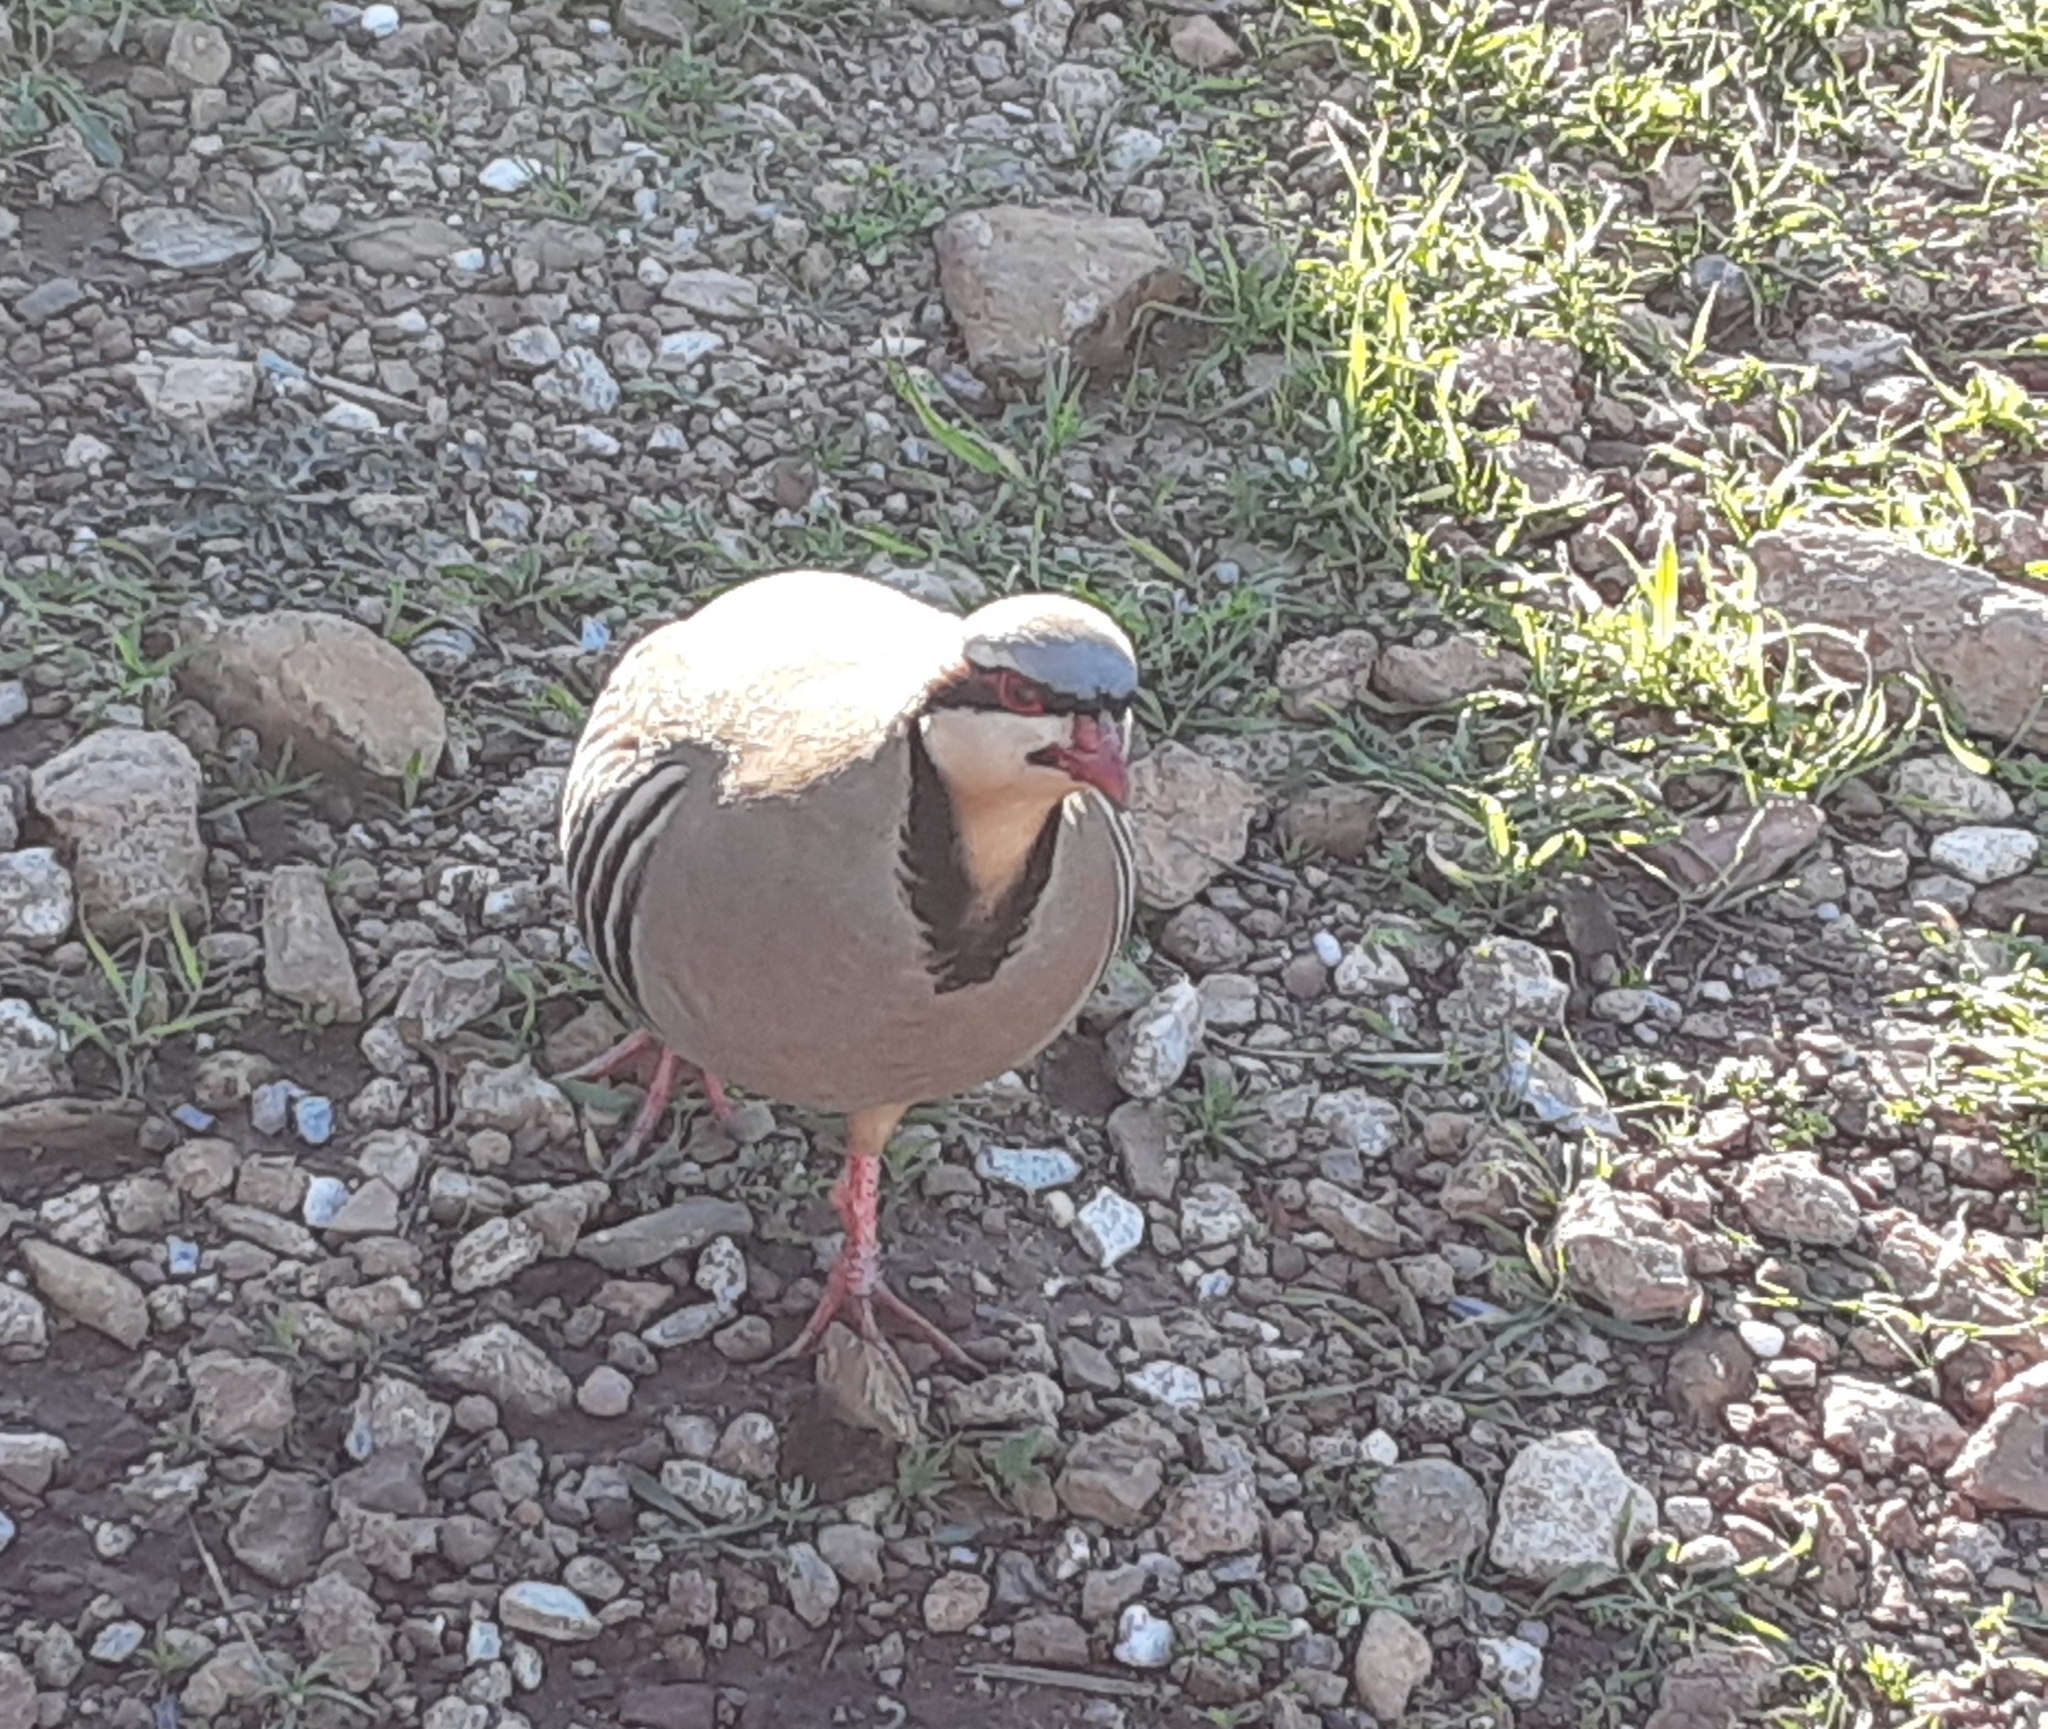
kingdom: Animalia
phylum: Chordata
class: Aves
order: Galliformes
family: Phasianidae
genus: Alectoris
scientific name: Alectoris chukar
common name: Chukar
